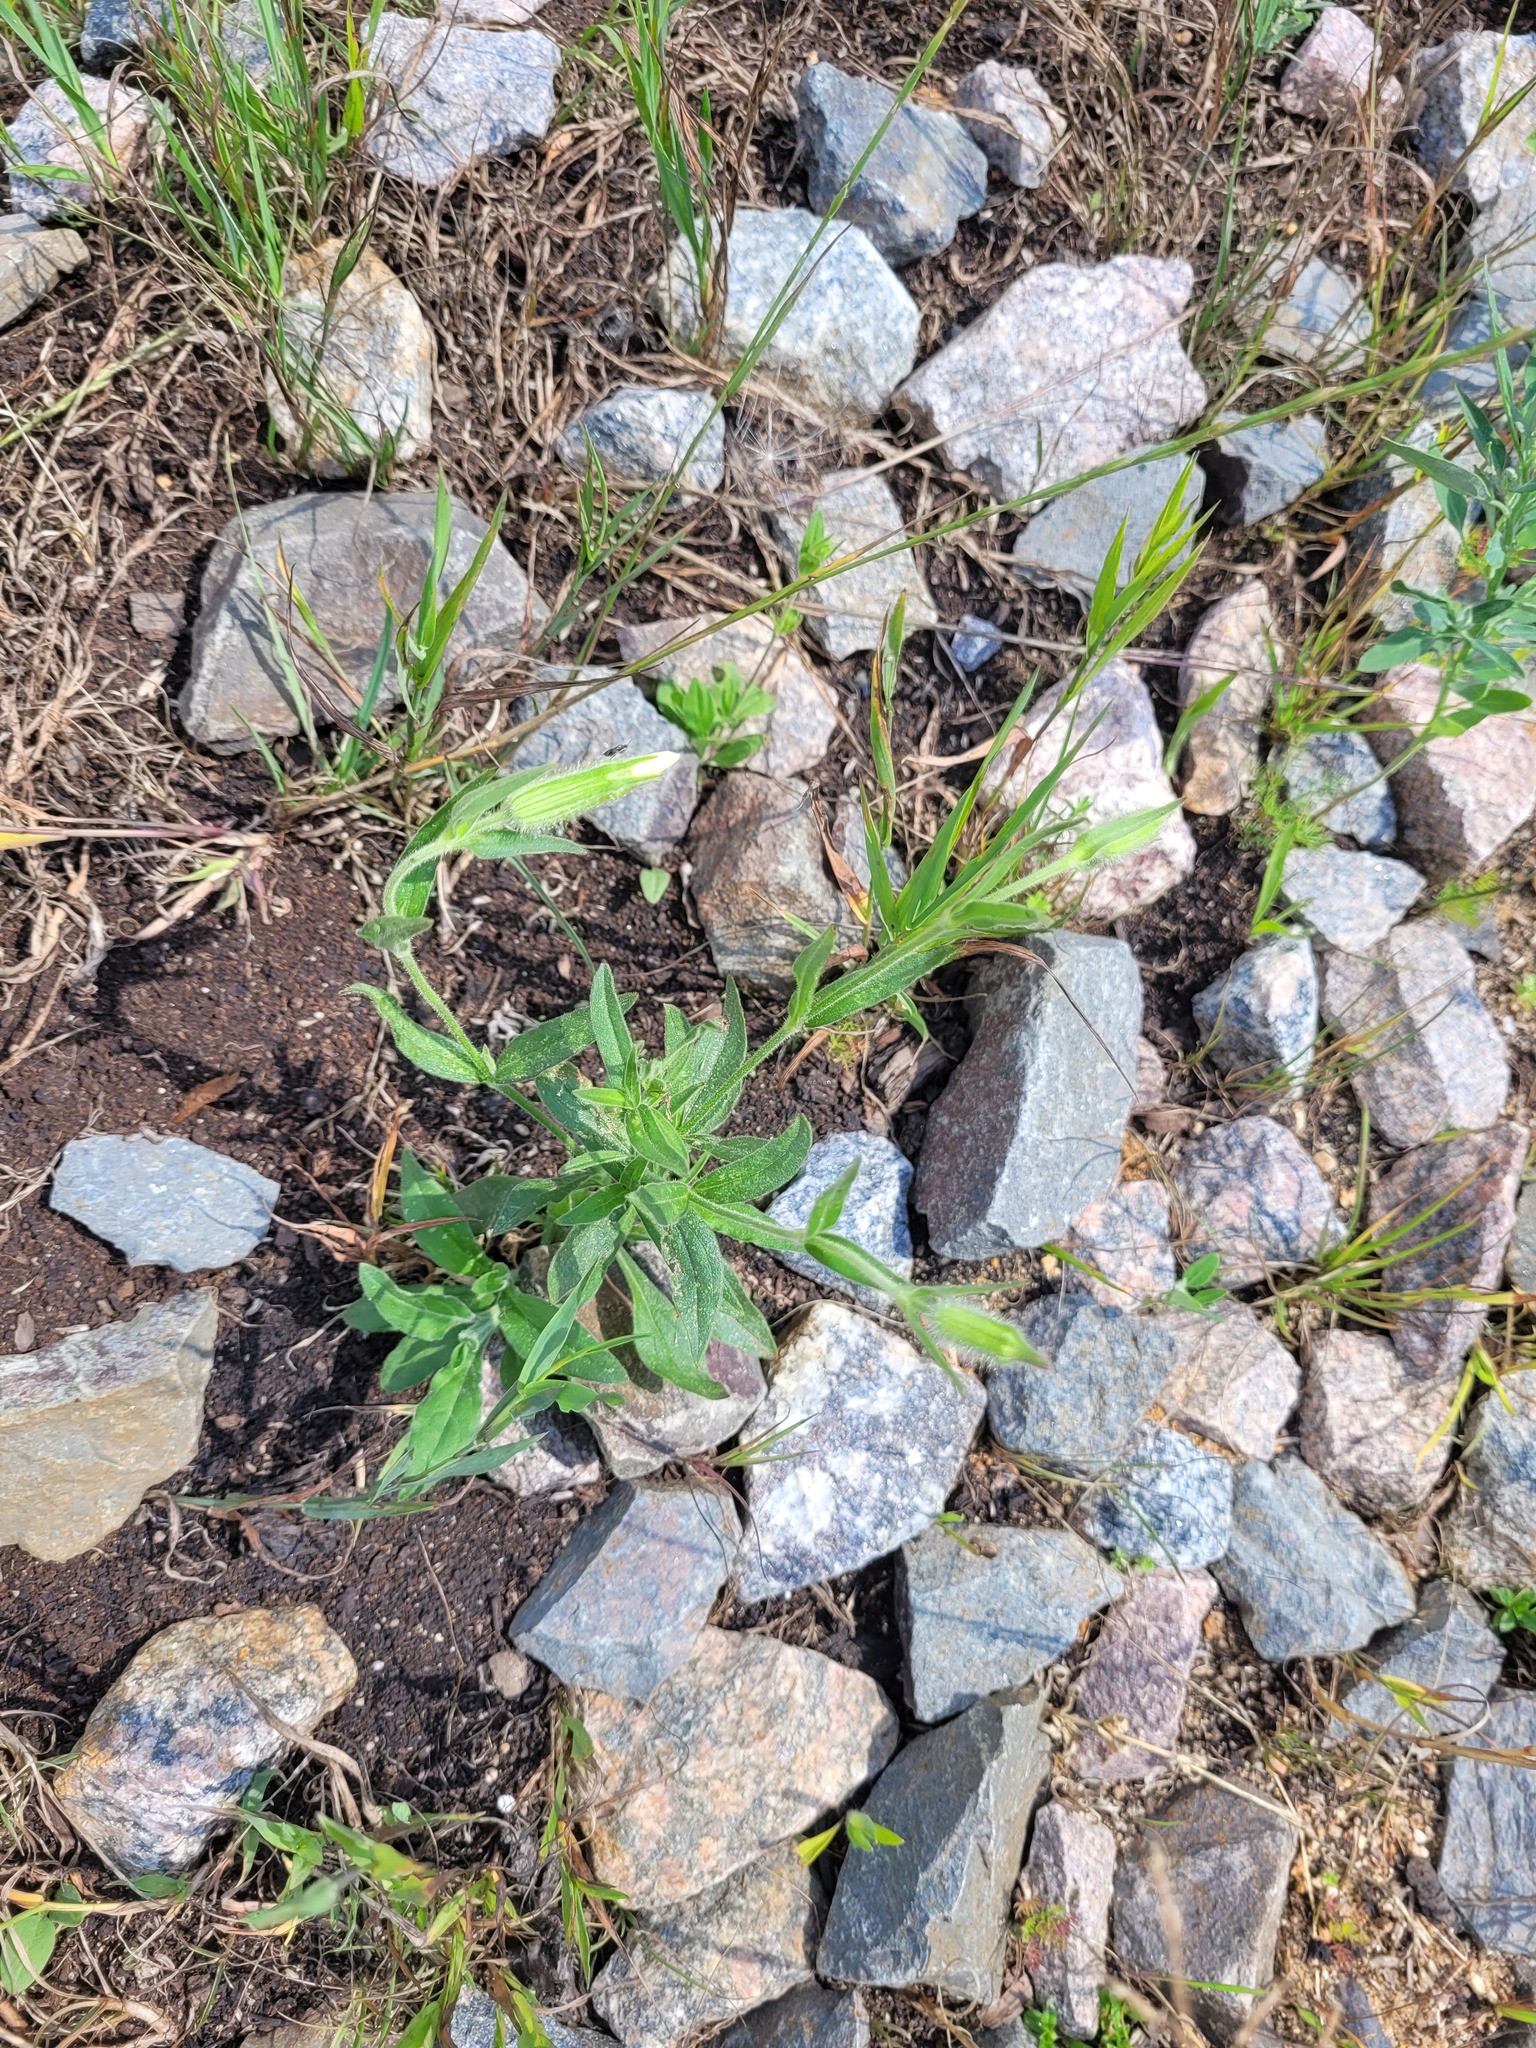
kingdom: Plantae
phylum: Tracheophyta
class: Magnoliopsida
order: Caryophyllales
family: Caryophyllaceae
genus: Silene
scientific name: Silene latifolia
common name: White campion
